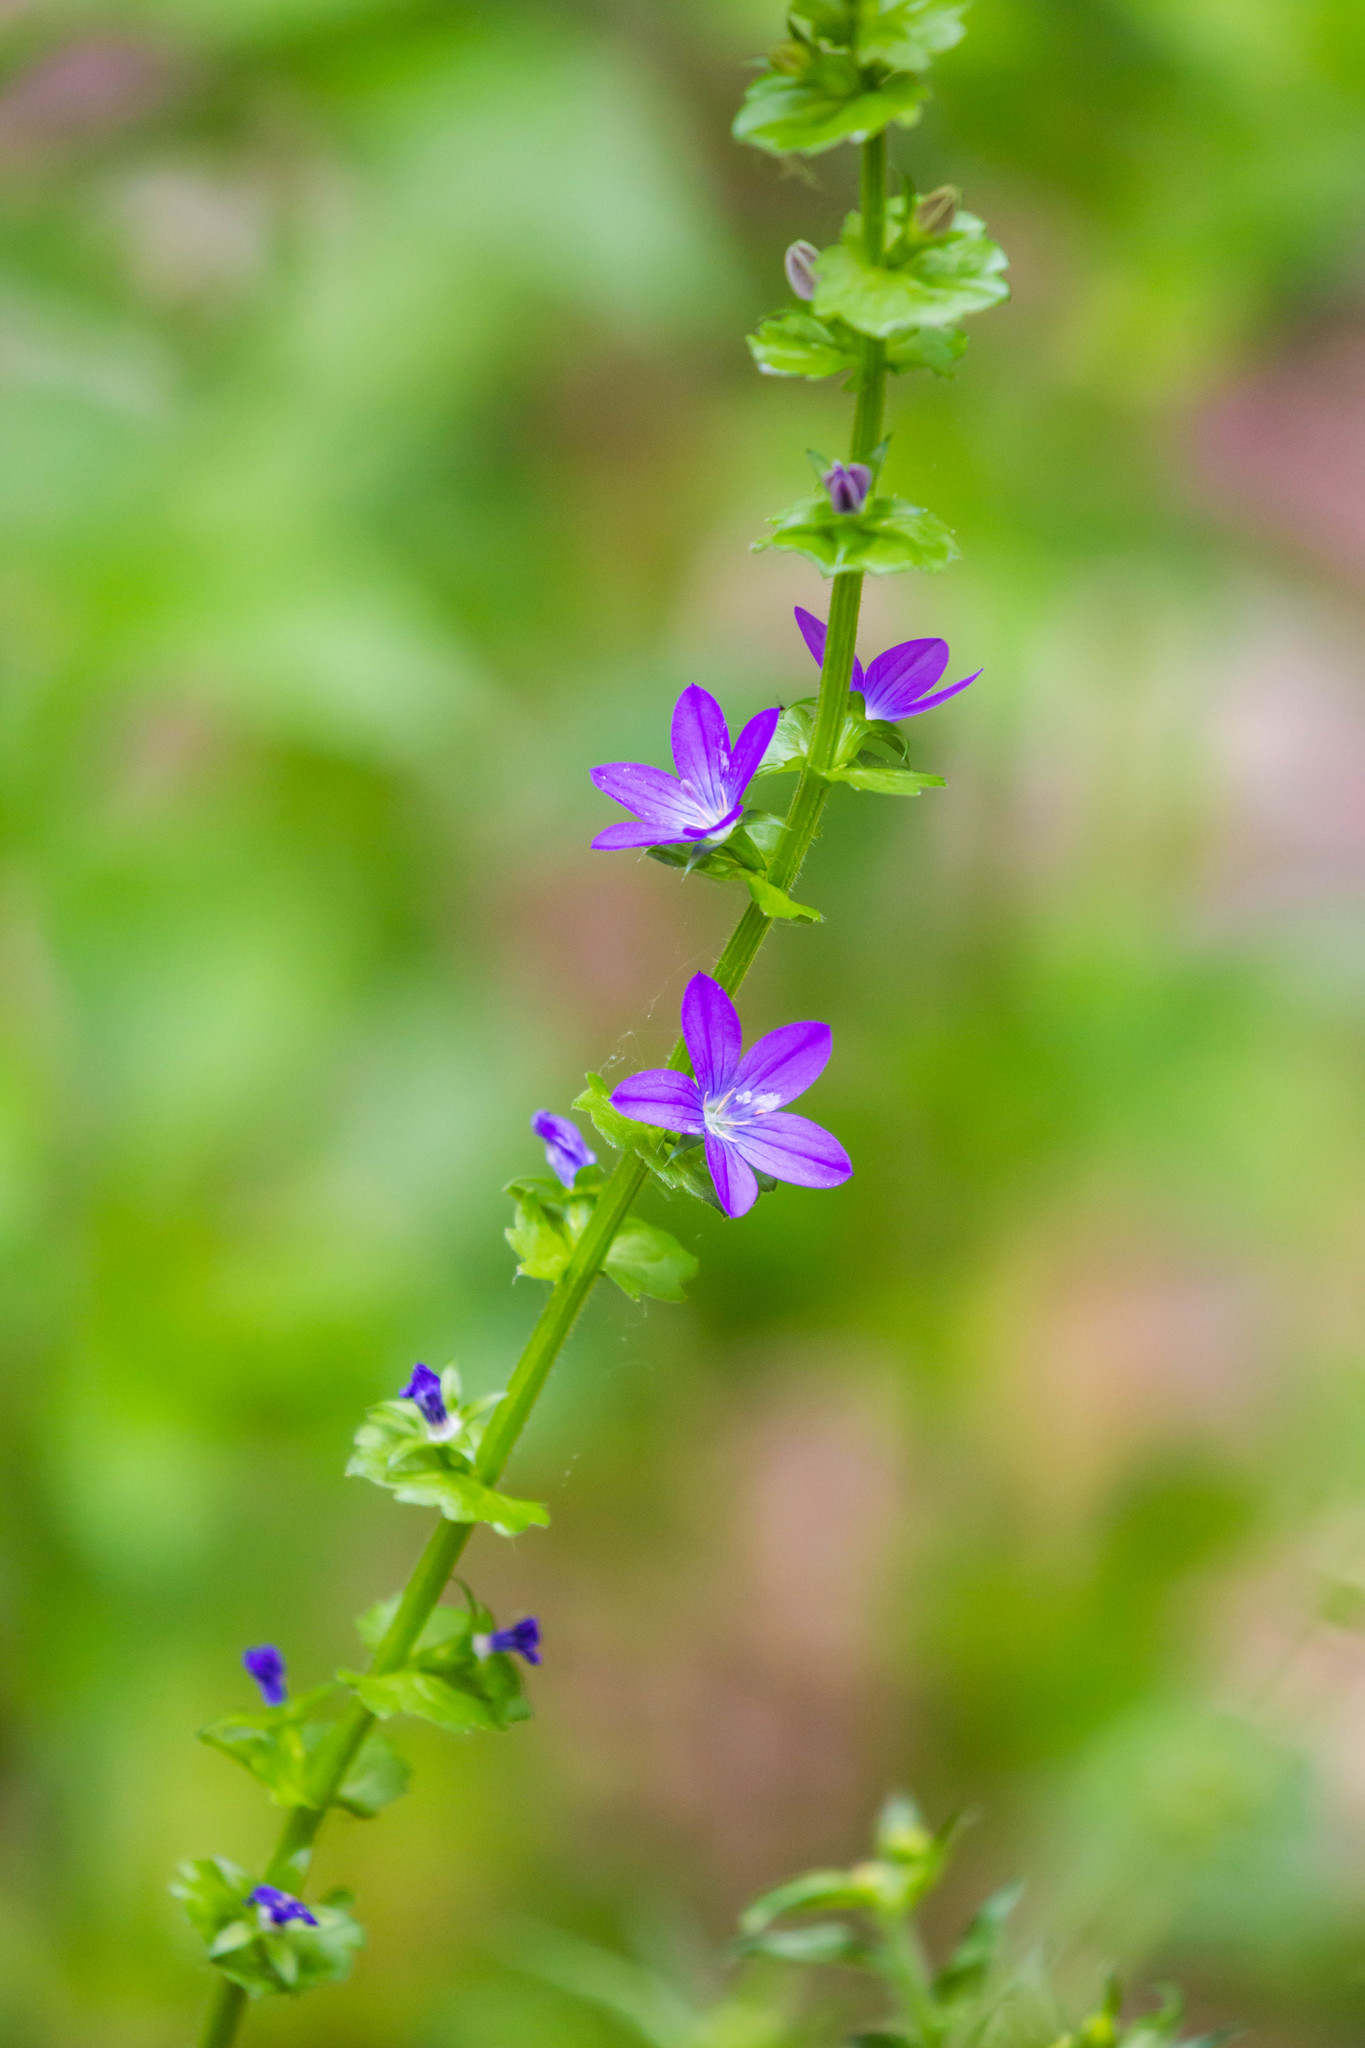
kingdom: Plantae
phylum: Tracheophyta
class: Magnoliopsida
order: Asterales
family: Campanulaceae
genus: Triodanis
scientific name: Triodanis perfoliata
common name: Clasping venus' looking-glass
